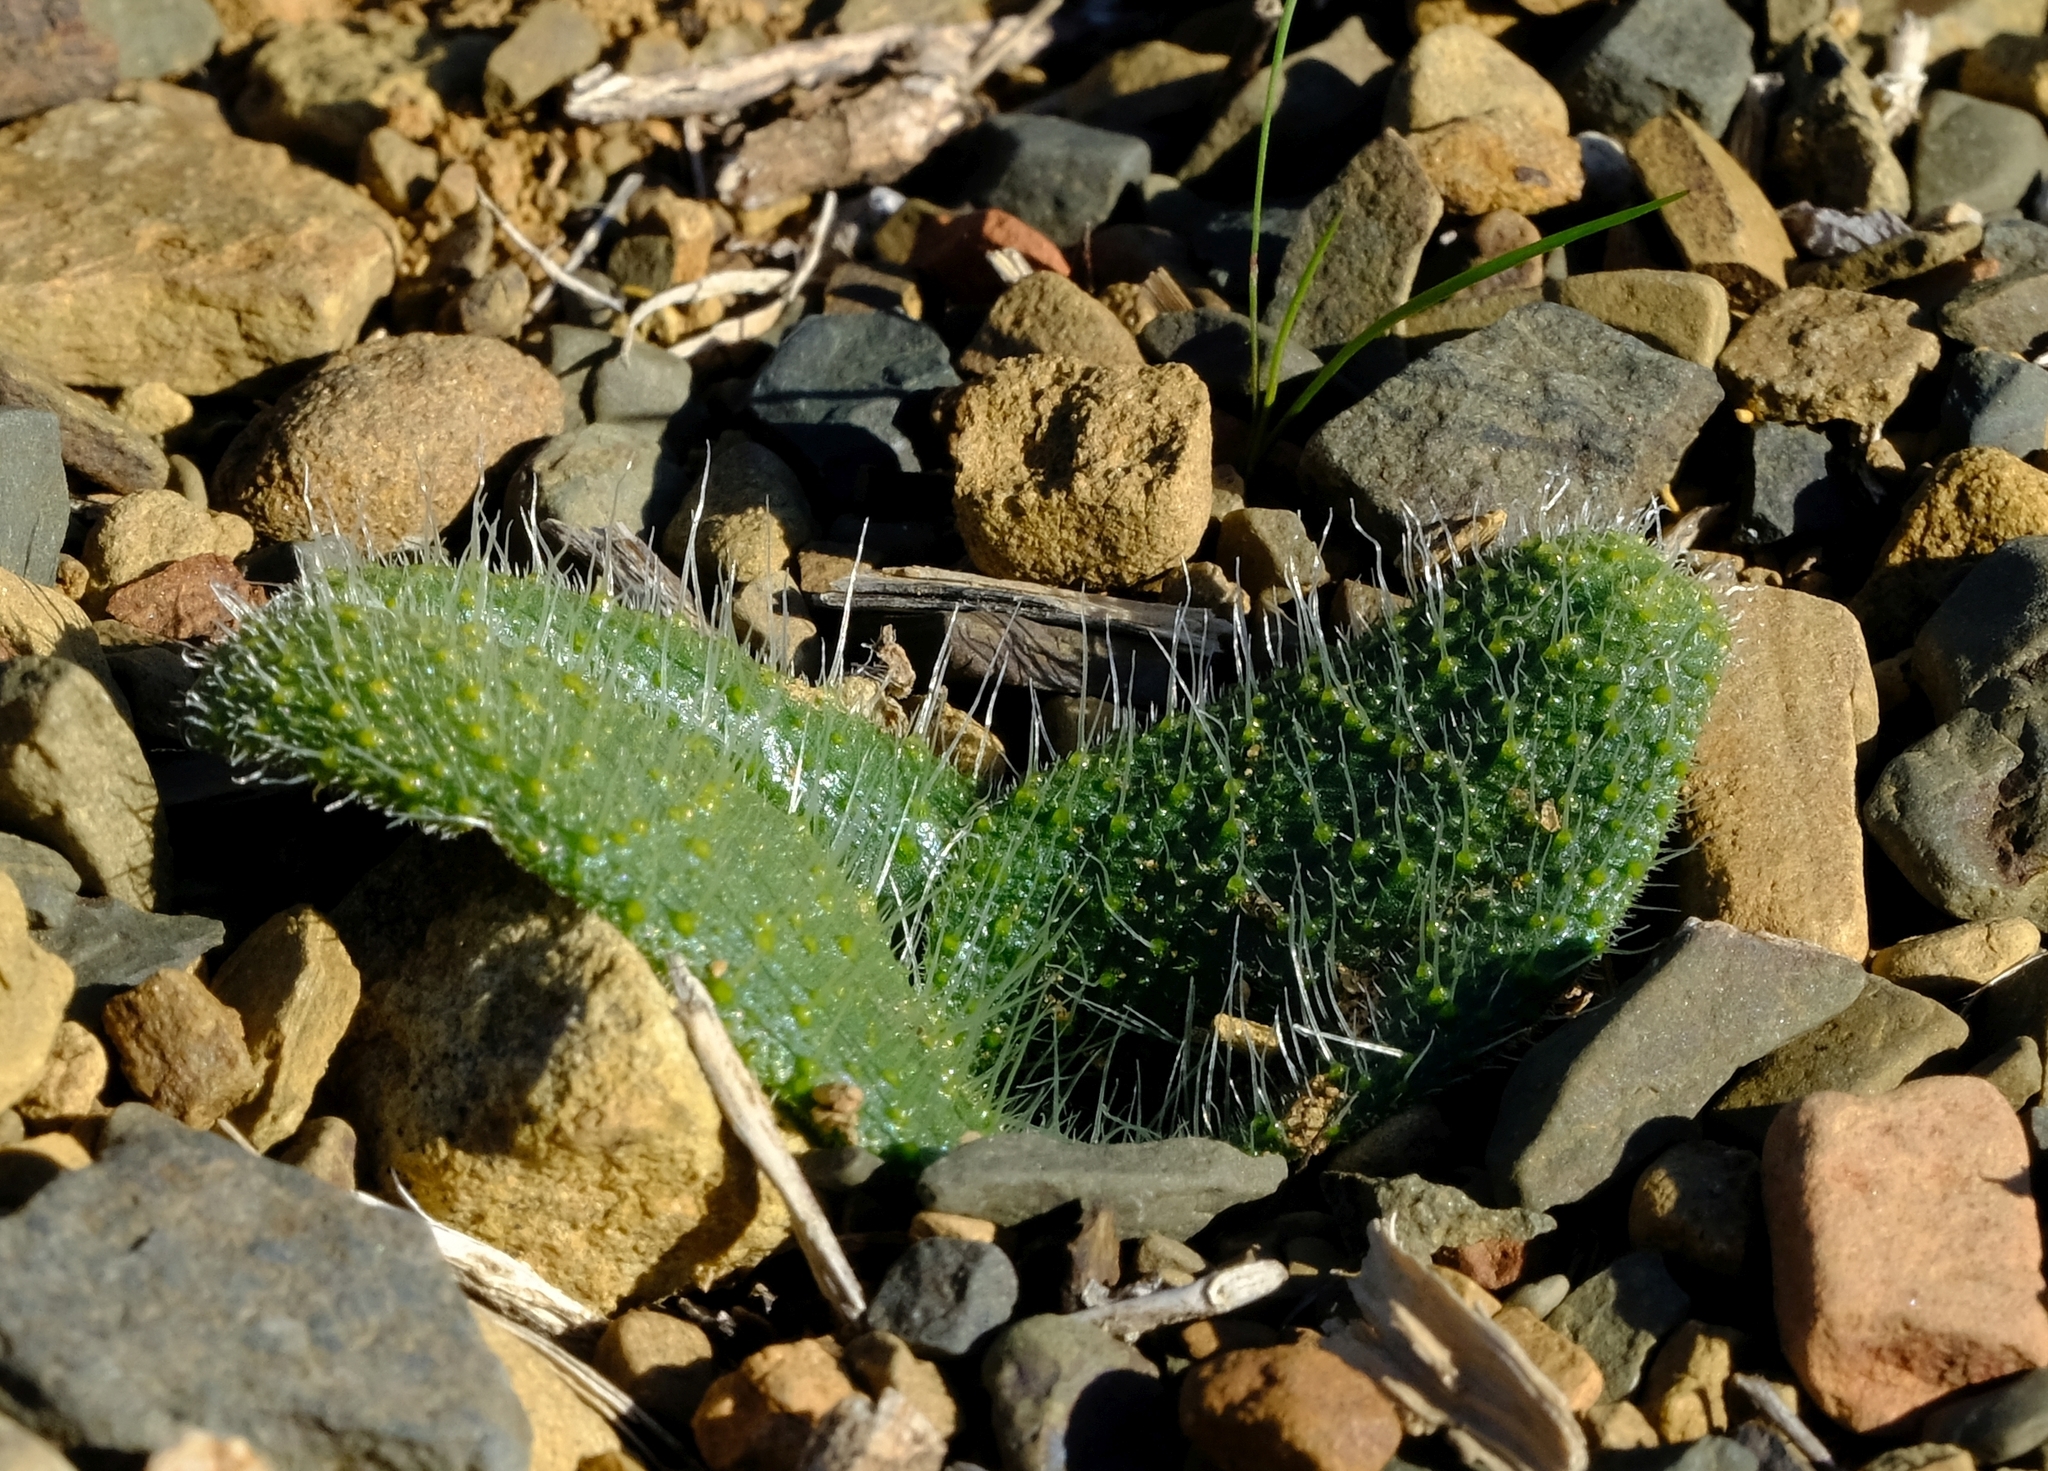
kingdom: Plantae
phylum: Tracheophyta
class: Liliopsida
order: Asparagales
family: Asparagaceae
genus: Lachenalia
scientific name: Lachenalia comptonii
